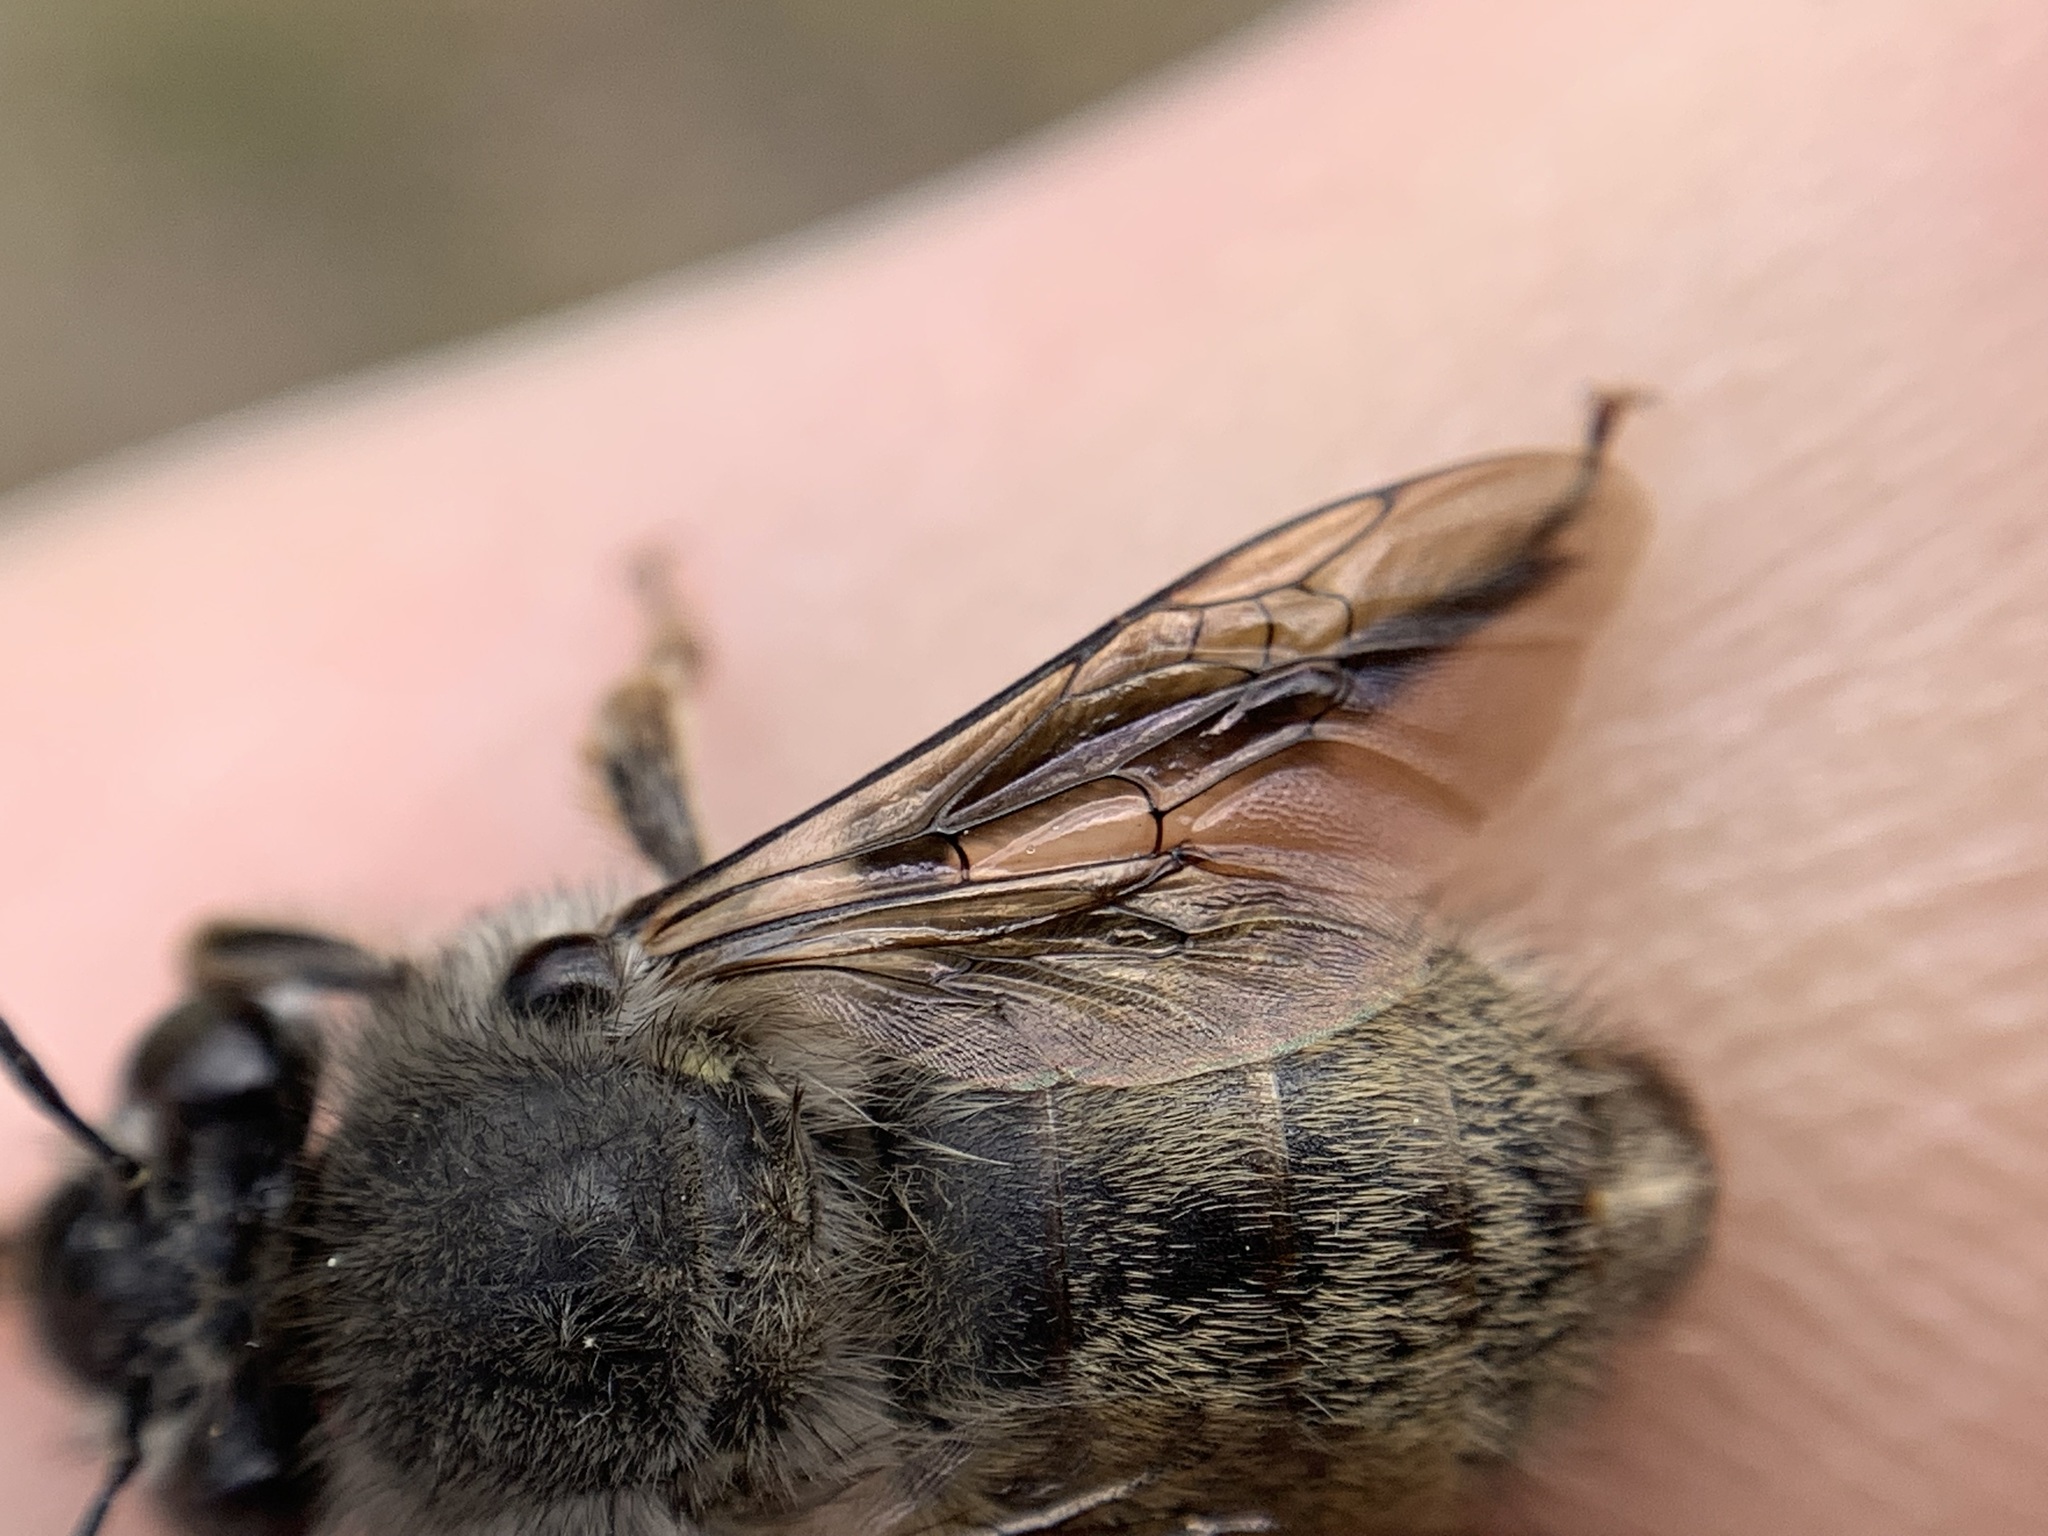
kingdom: Animalia
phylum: Arthropoda
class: Insecta
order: Hymenoptera
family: Apidae
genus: Habropoda
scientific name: Habropoda depressa
